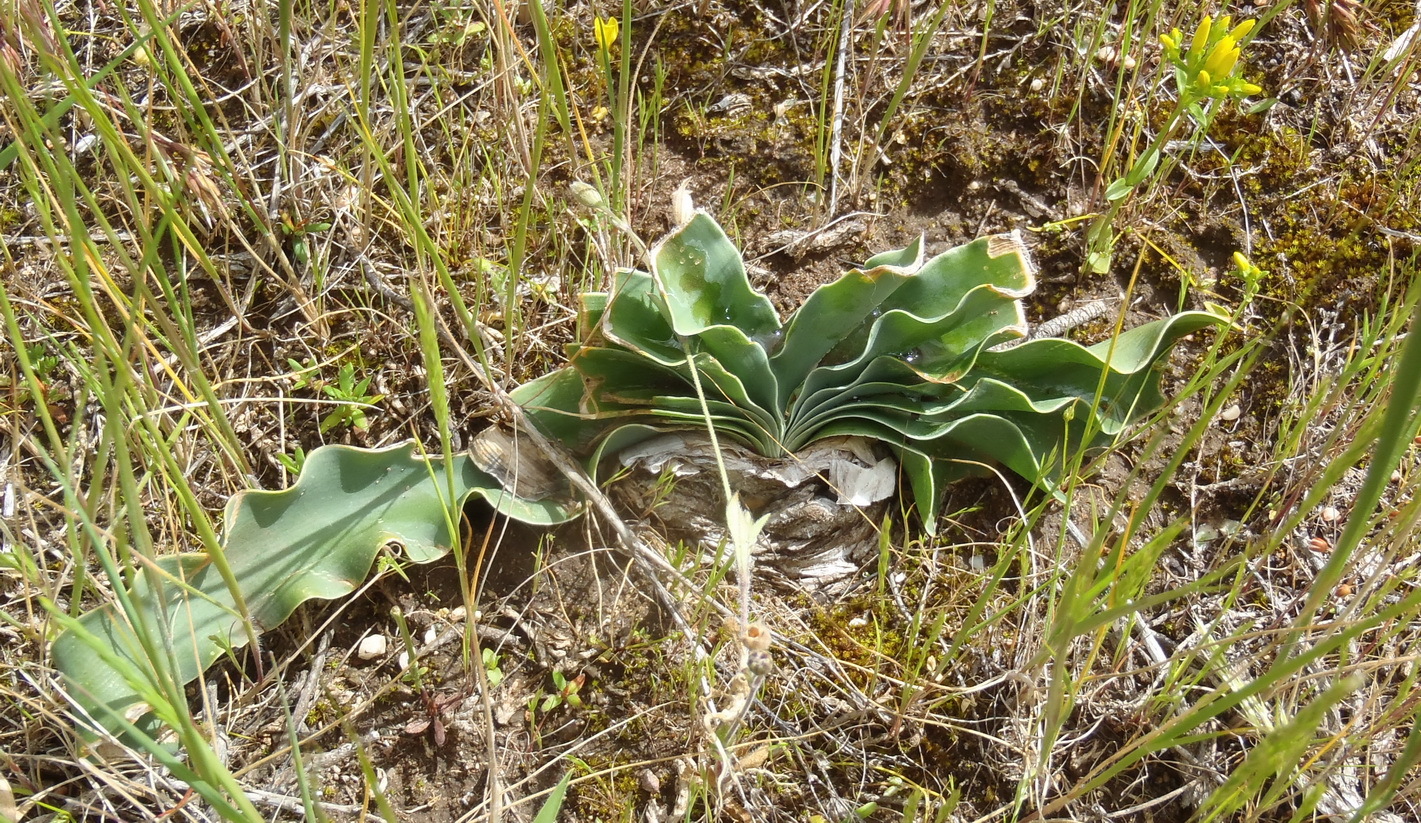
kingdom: Plantae
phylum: Tracheophyta
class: Liliopsida
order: Asparagales
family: Amaryllidaceae
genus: Boophone
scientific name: Boophone disticha
